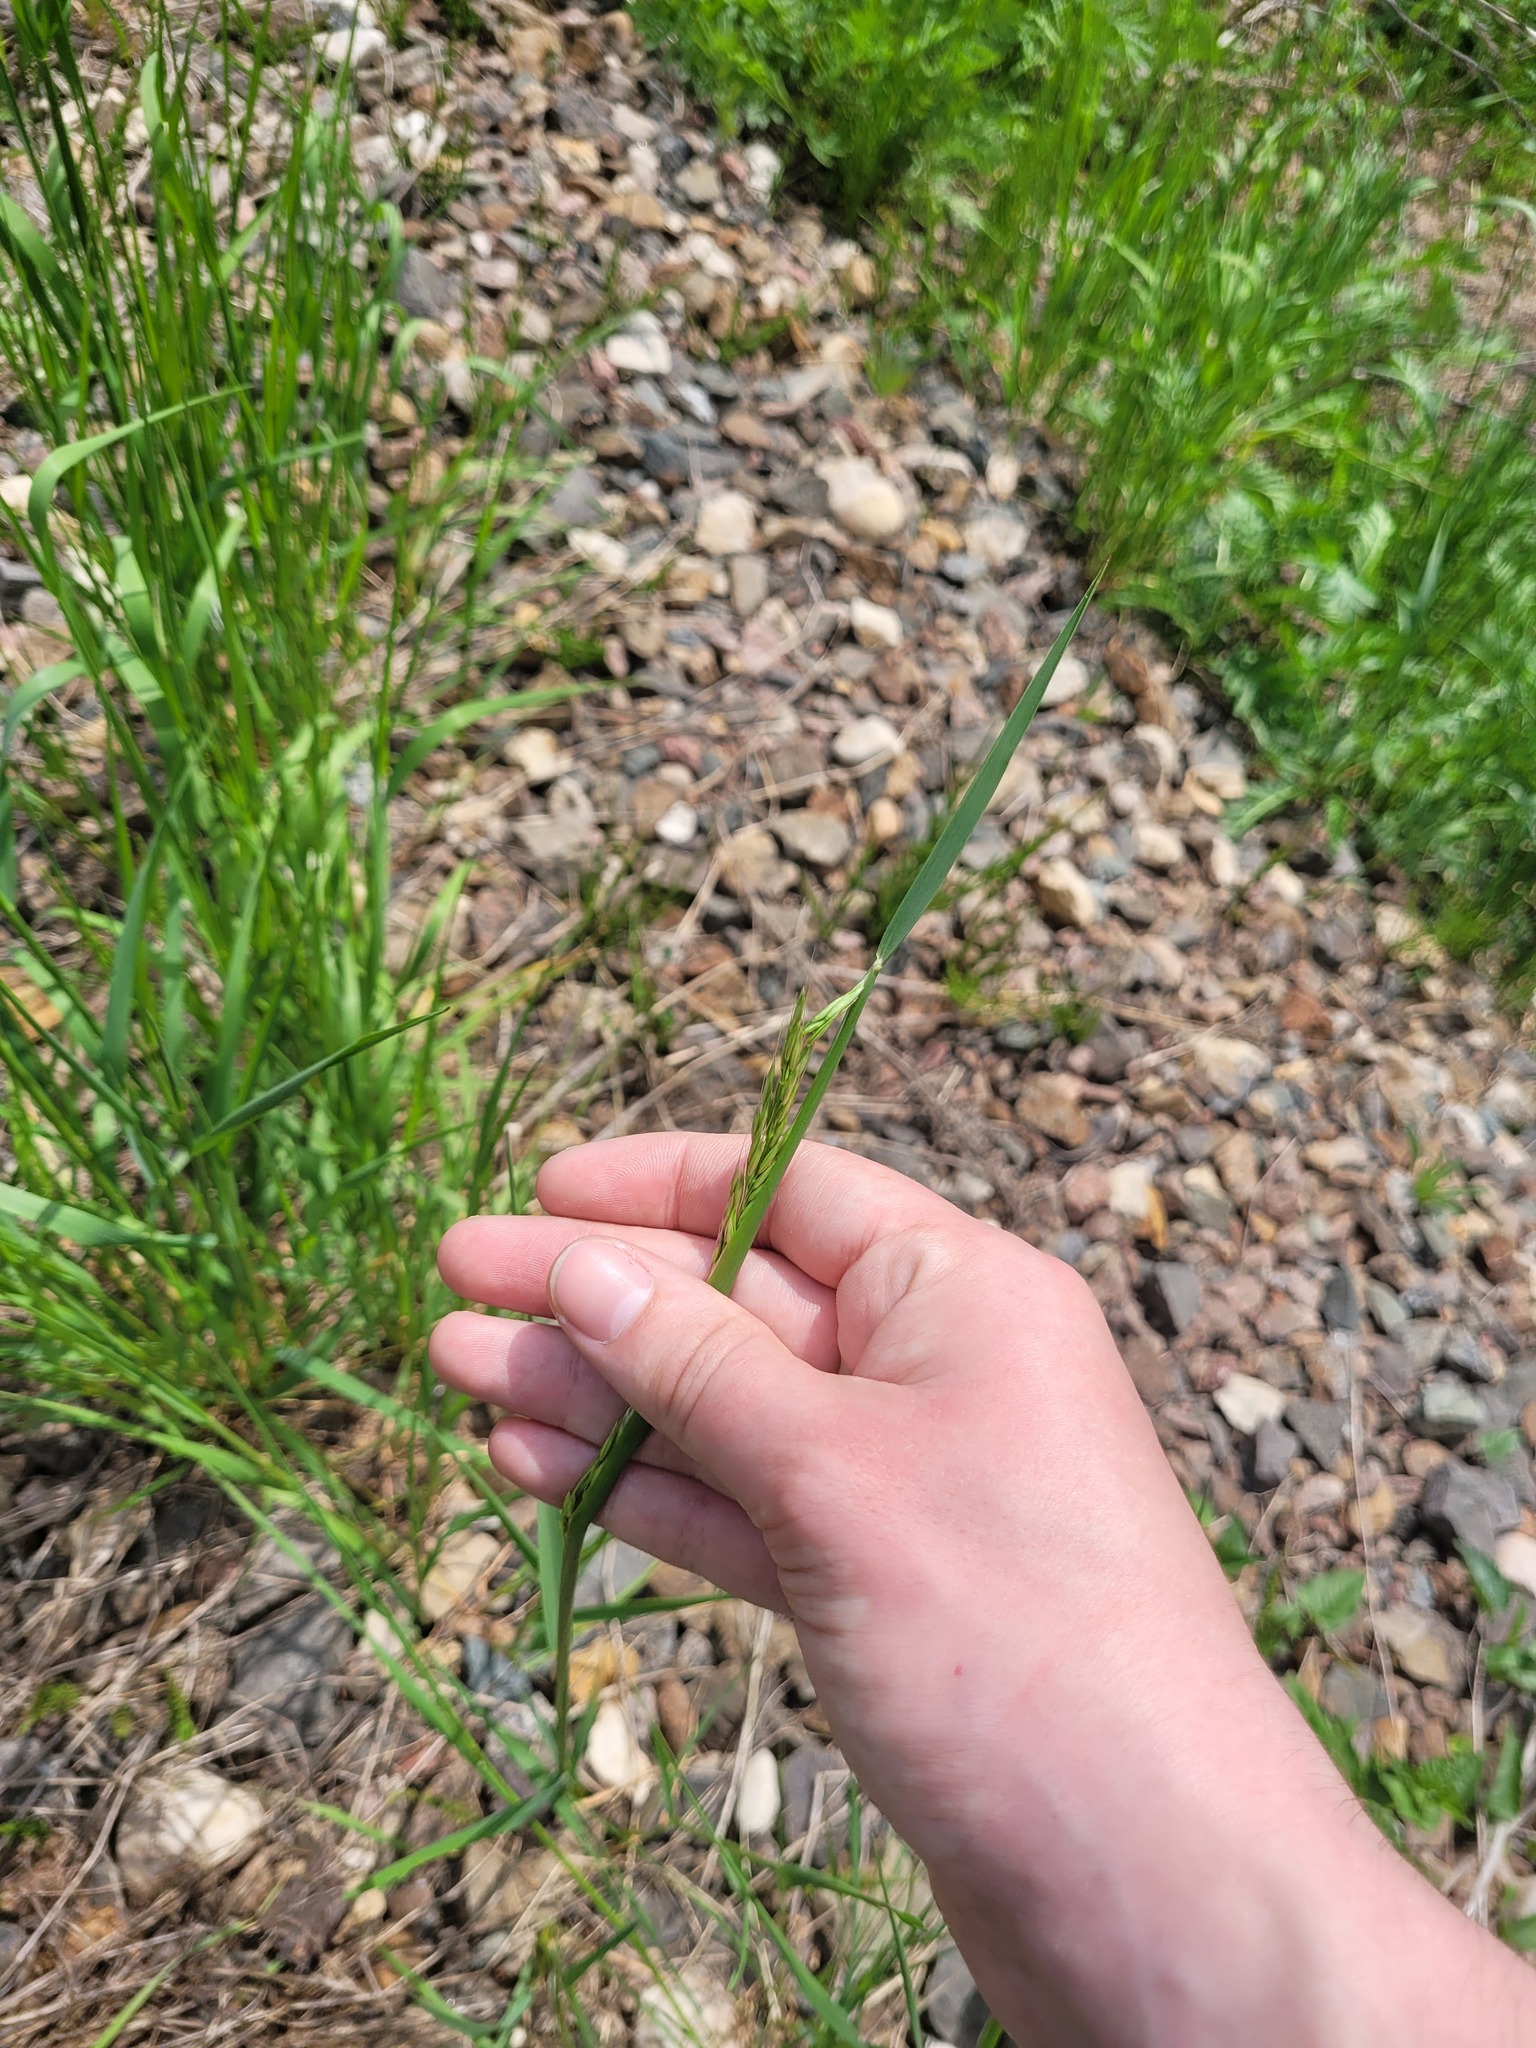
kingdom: Plantae
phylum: Tracheophyta
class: Liliopsida
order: Poales
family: Poaceae
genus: Arrhenatherum
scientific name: Arrhenatherum elatius
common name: Tall oatgrass
